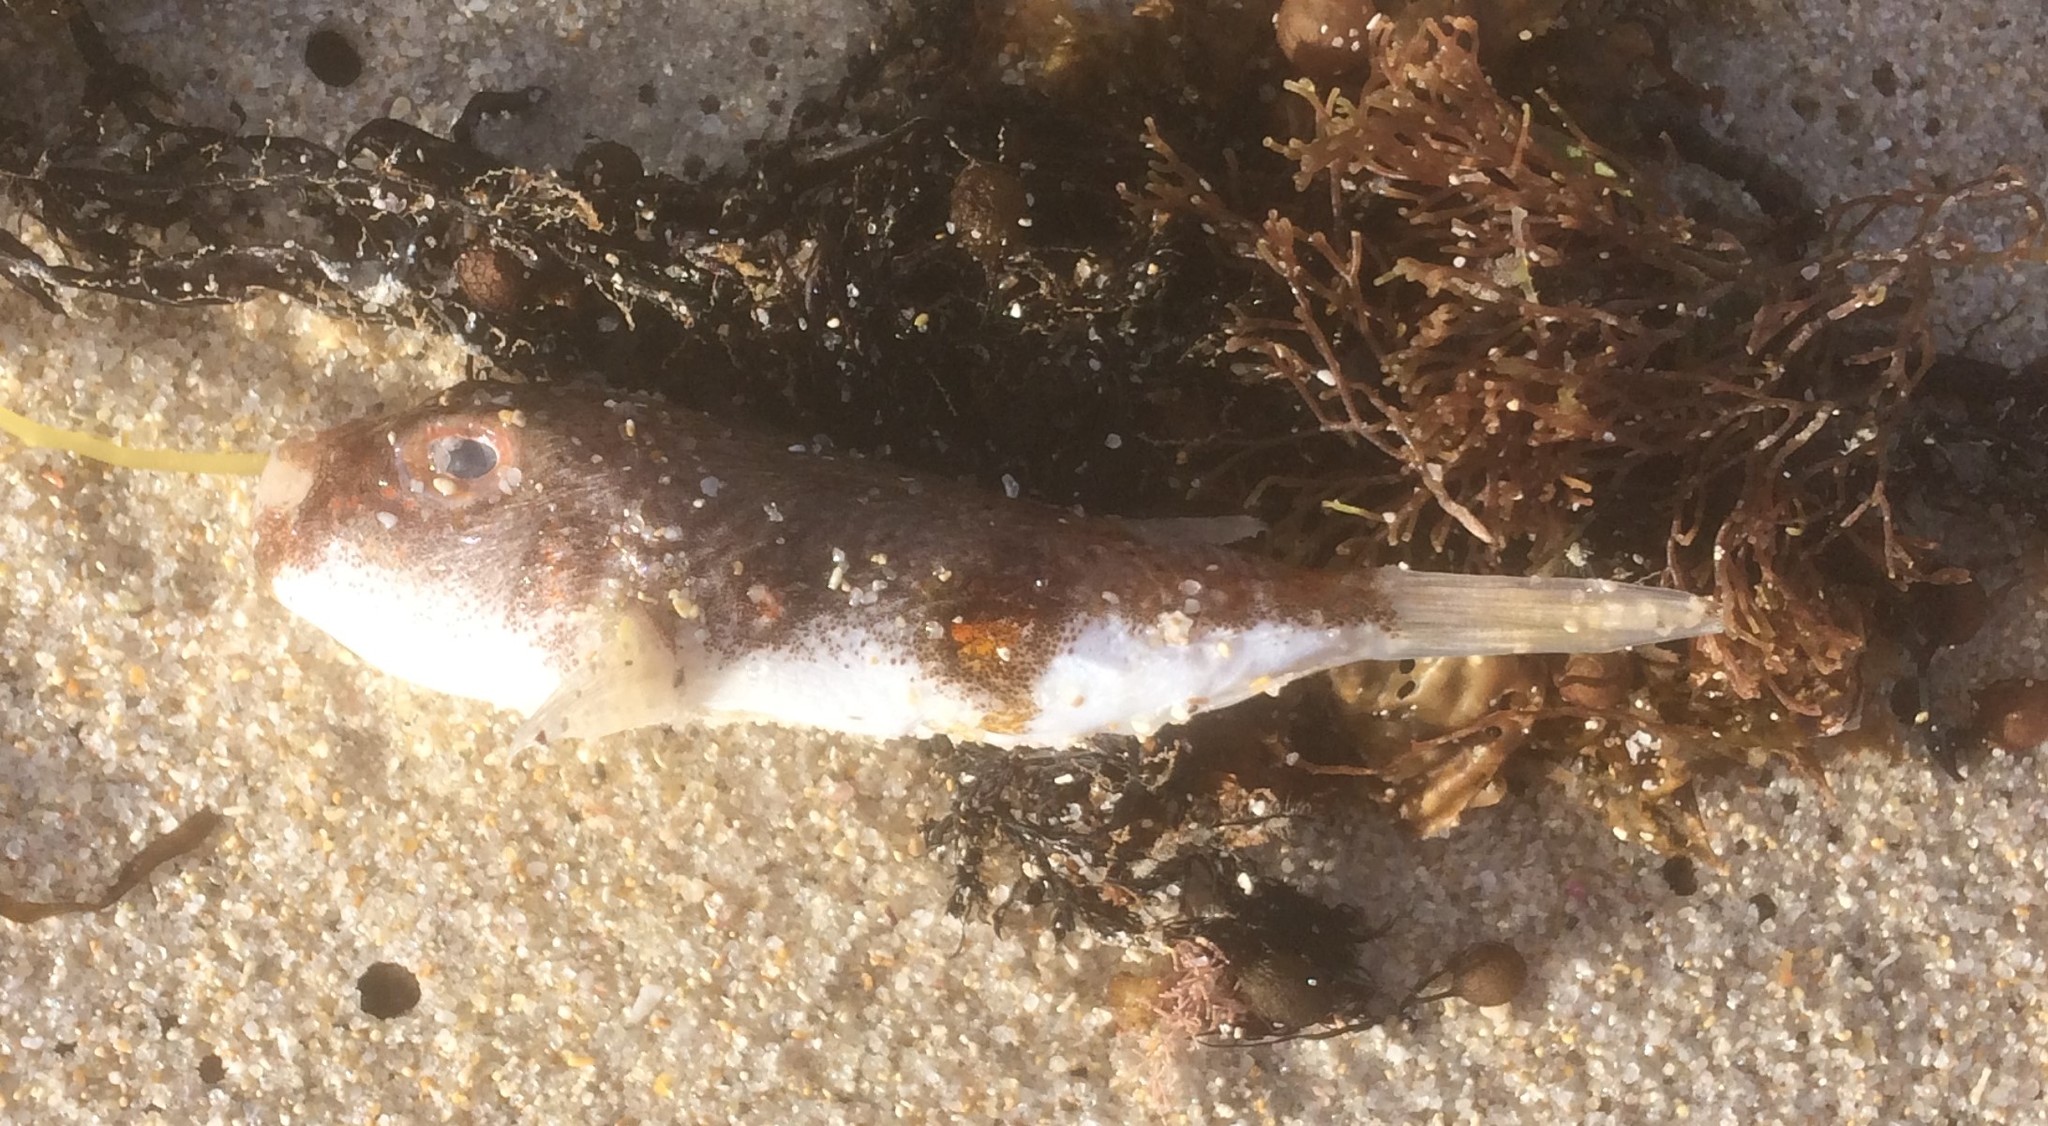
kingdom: Animalia
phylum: Chordata
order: Tetraodontiformes
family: Tetraodontidae
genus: Polyspina
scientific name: Polyspina piosae
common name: Orange-barred pufferfish
